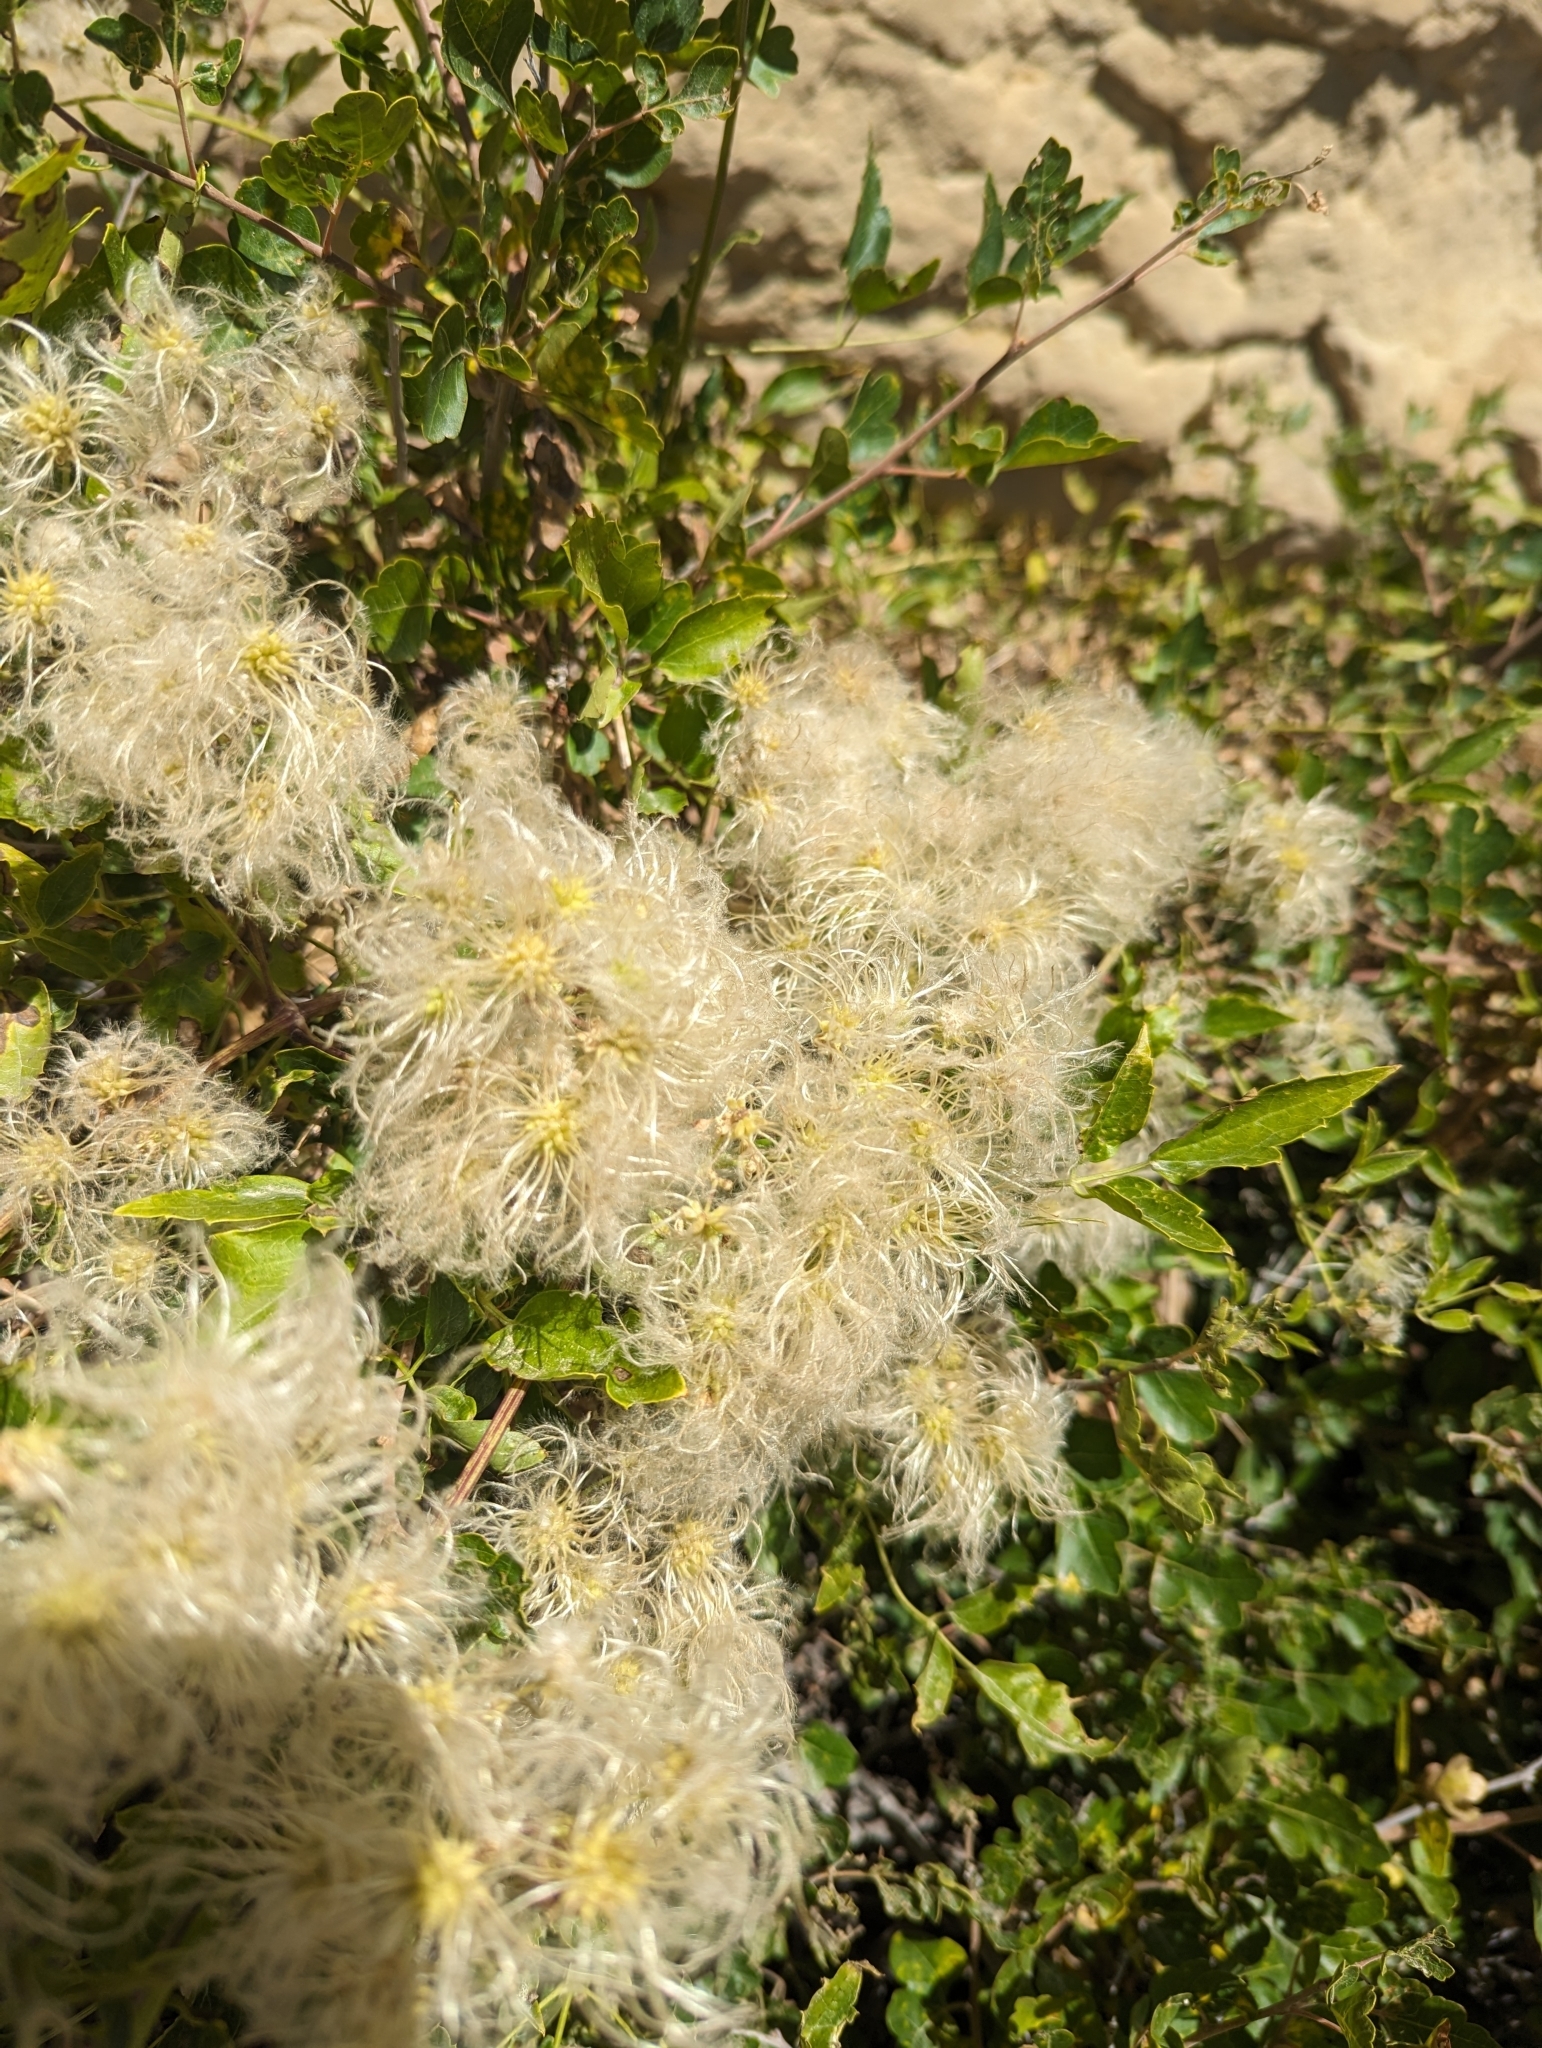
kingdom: Plantae
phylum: Tracheophyta
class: Magnoliopsida
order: Ranunculales
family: Ranunculaceae
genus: Clematis
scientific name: Clematis ligusticifolia
